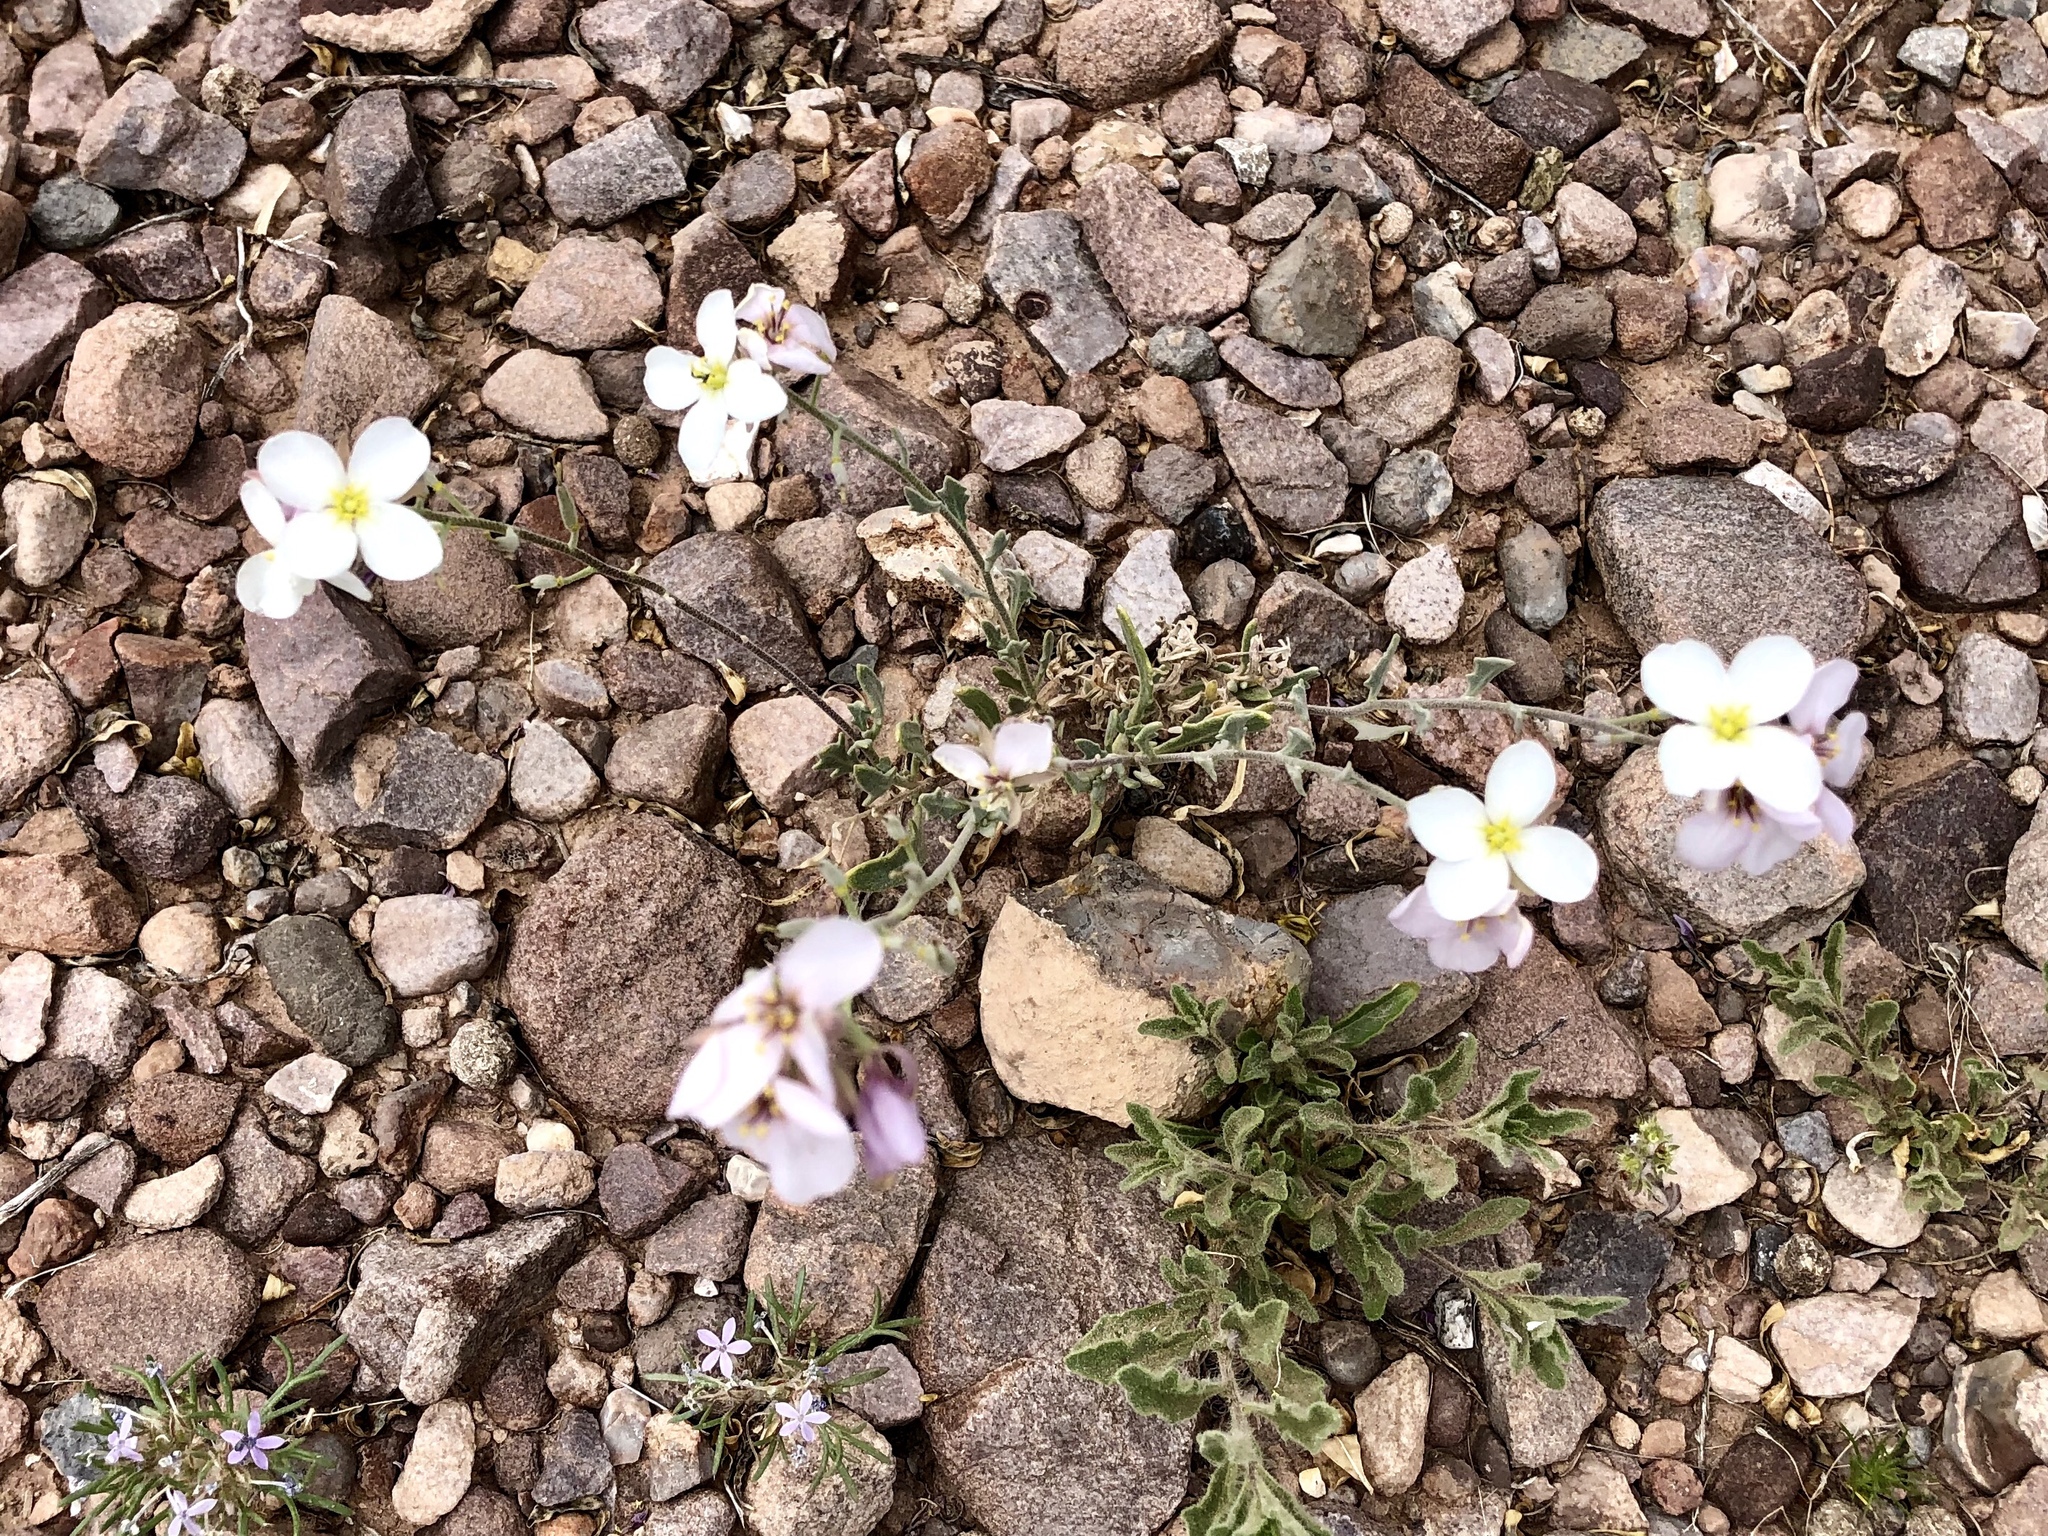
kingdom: Plantae
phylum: Tracheophyta
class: Magnoliopsida
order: Brassicales
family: Brassicaceae
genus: Nerisyrenia
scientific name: Nerisyrenia camporum
